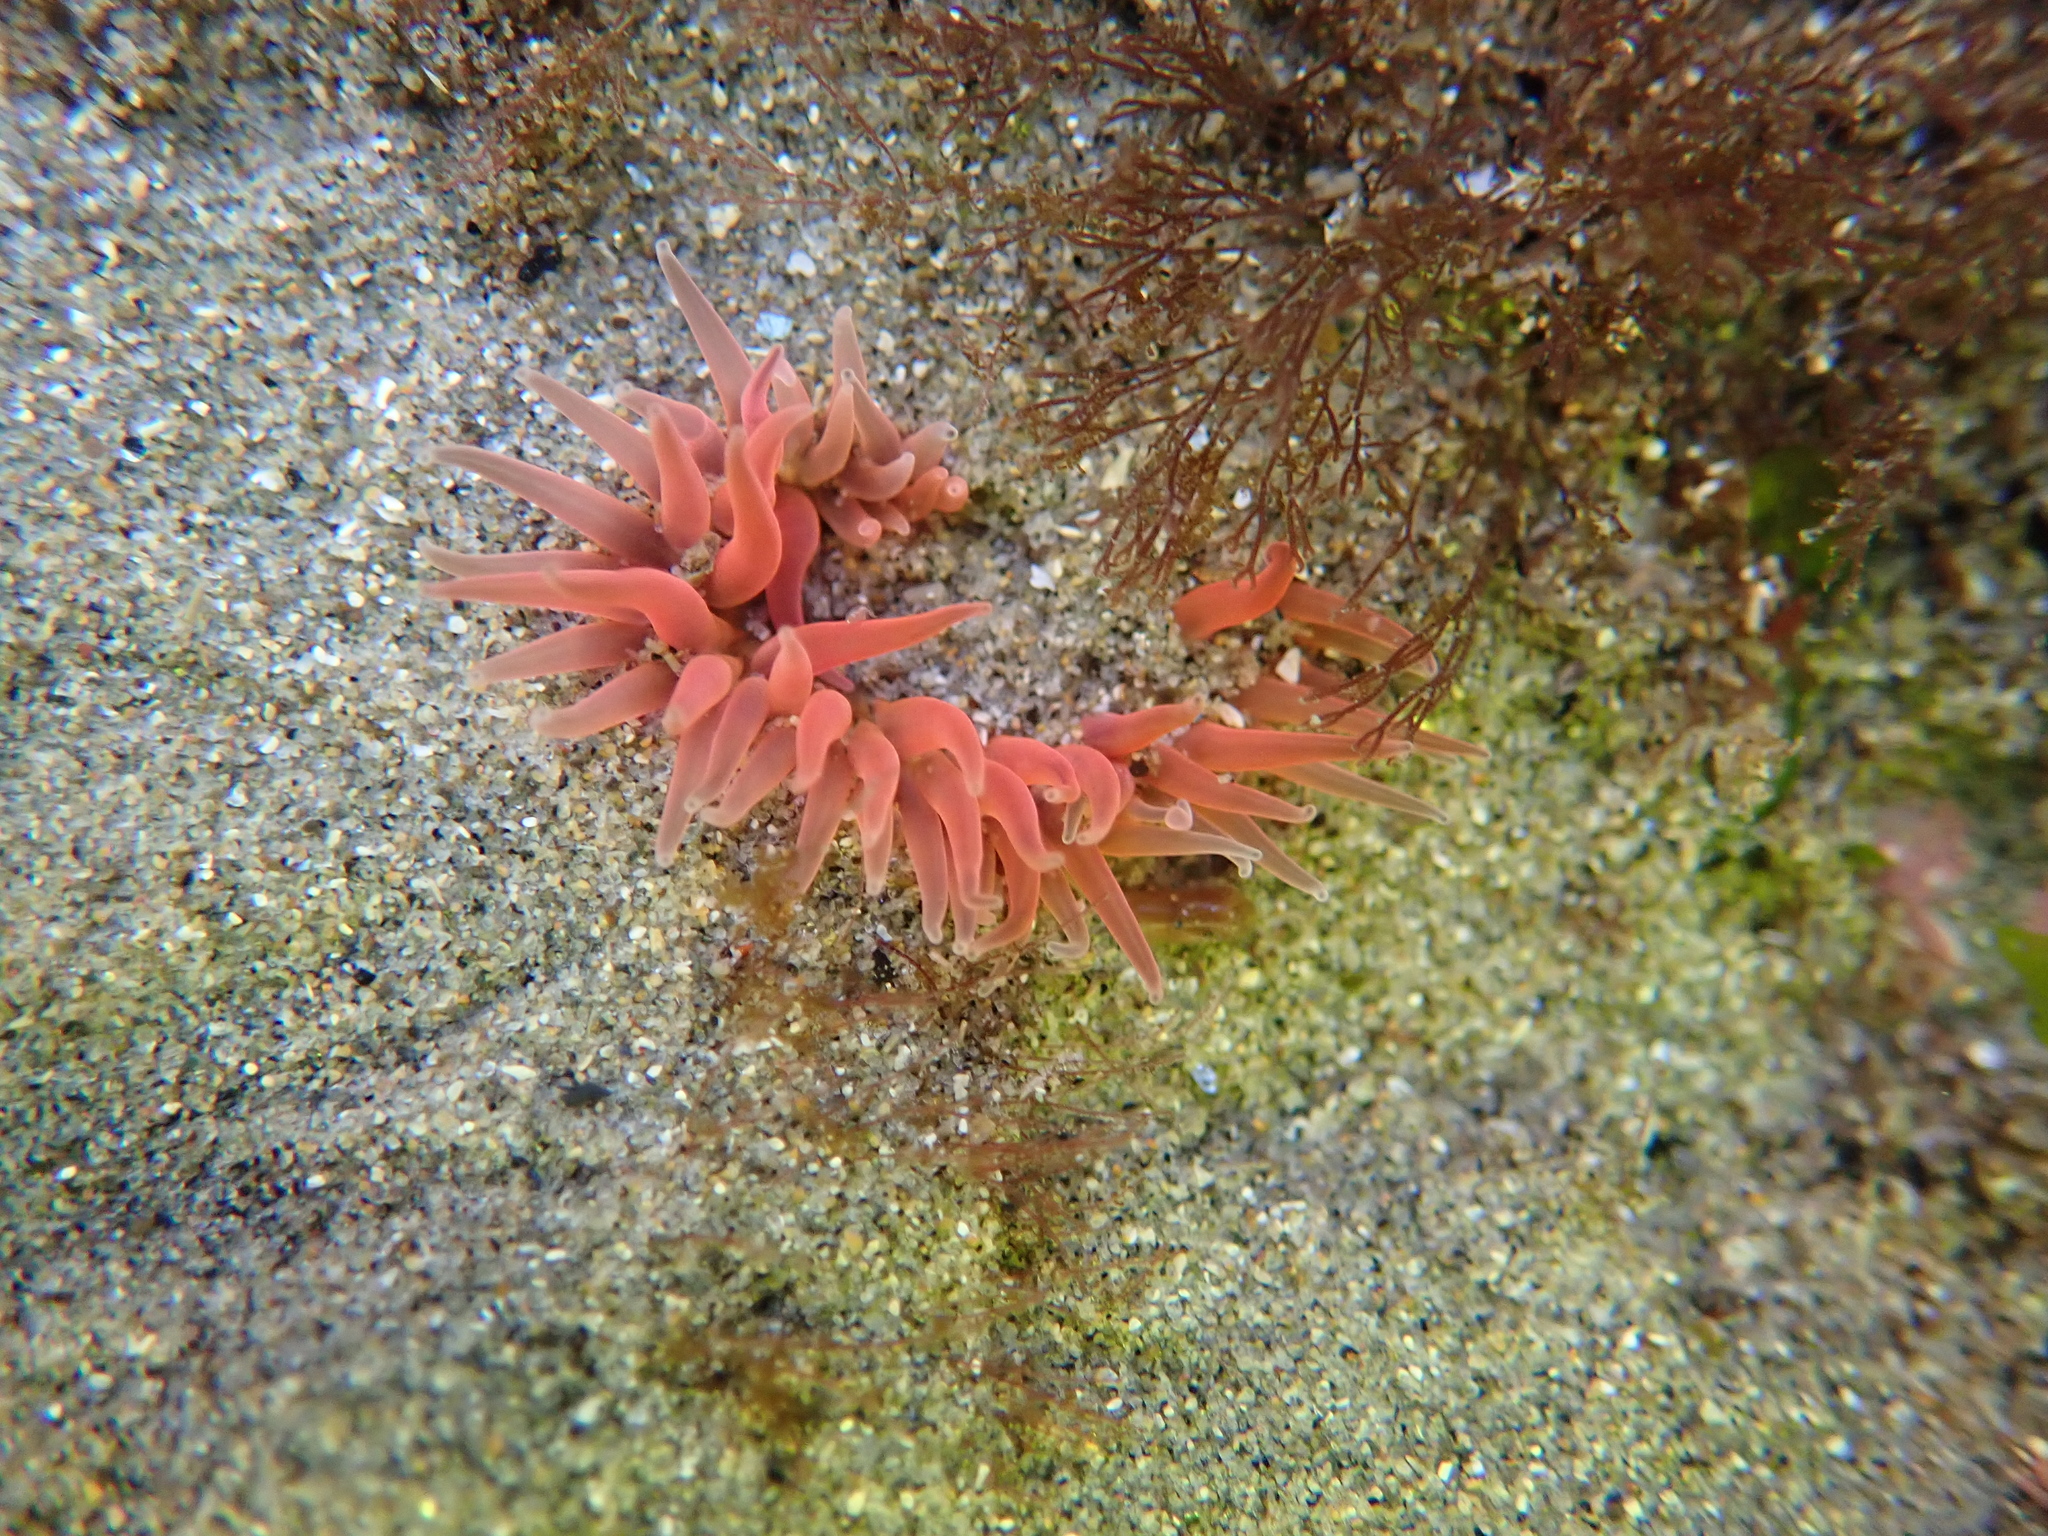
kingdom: Animalia
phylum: Cnidaria
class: Anthozoa
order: Actiniaria
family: Actiniidae
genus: Anthopleura
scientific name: Anthopleura artemisia
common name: Buried sea anemone
